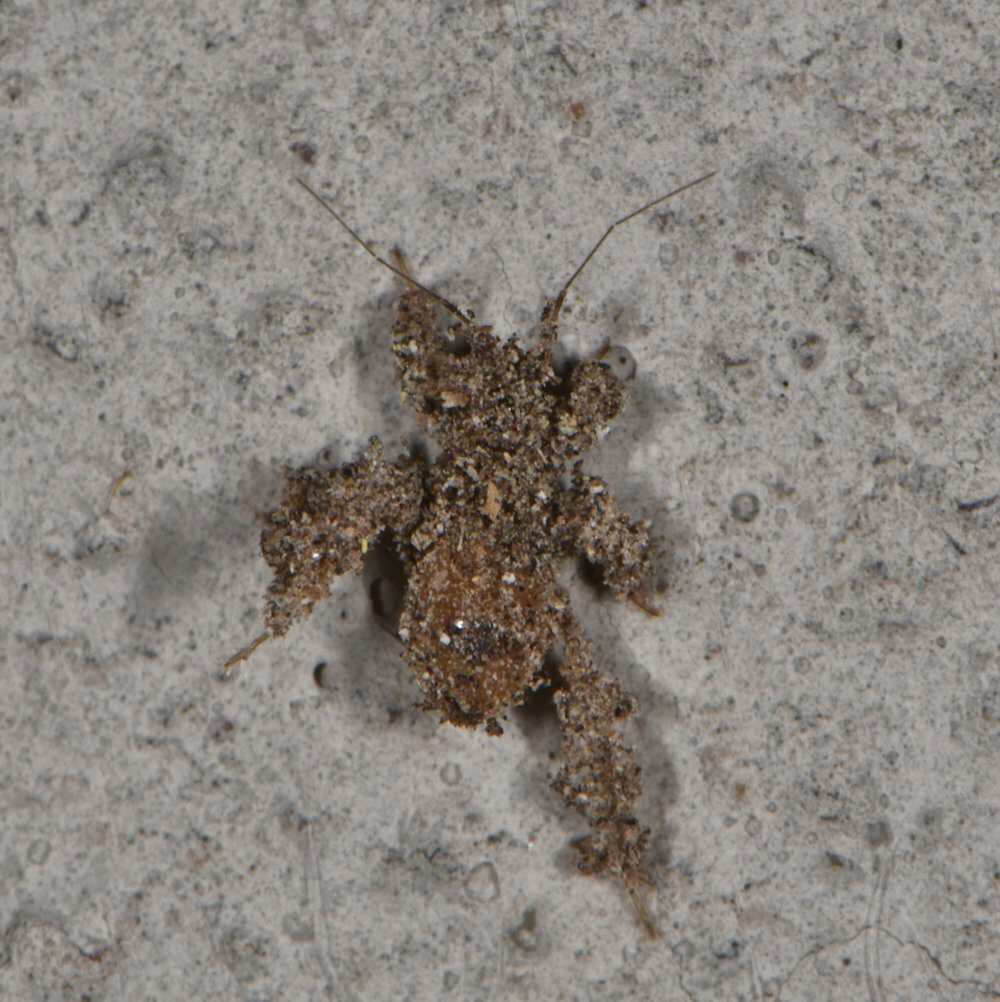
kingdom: Animalia
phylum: Arthropoda
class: Insecta
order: Hemiptera
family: Reduviidae
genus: Reduvius
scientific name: Reduvius personatus
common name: Masked hunter
